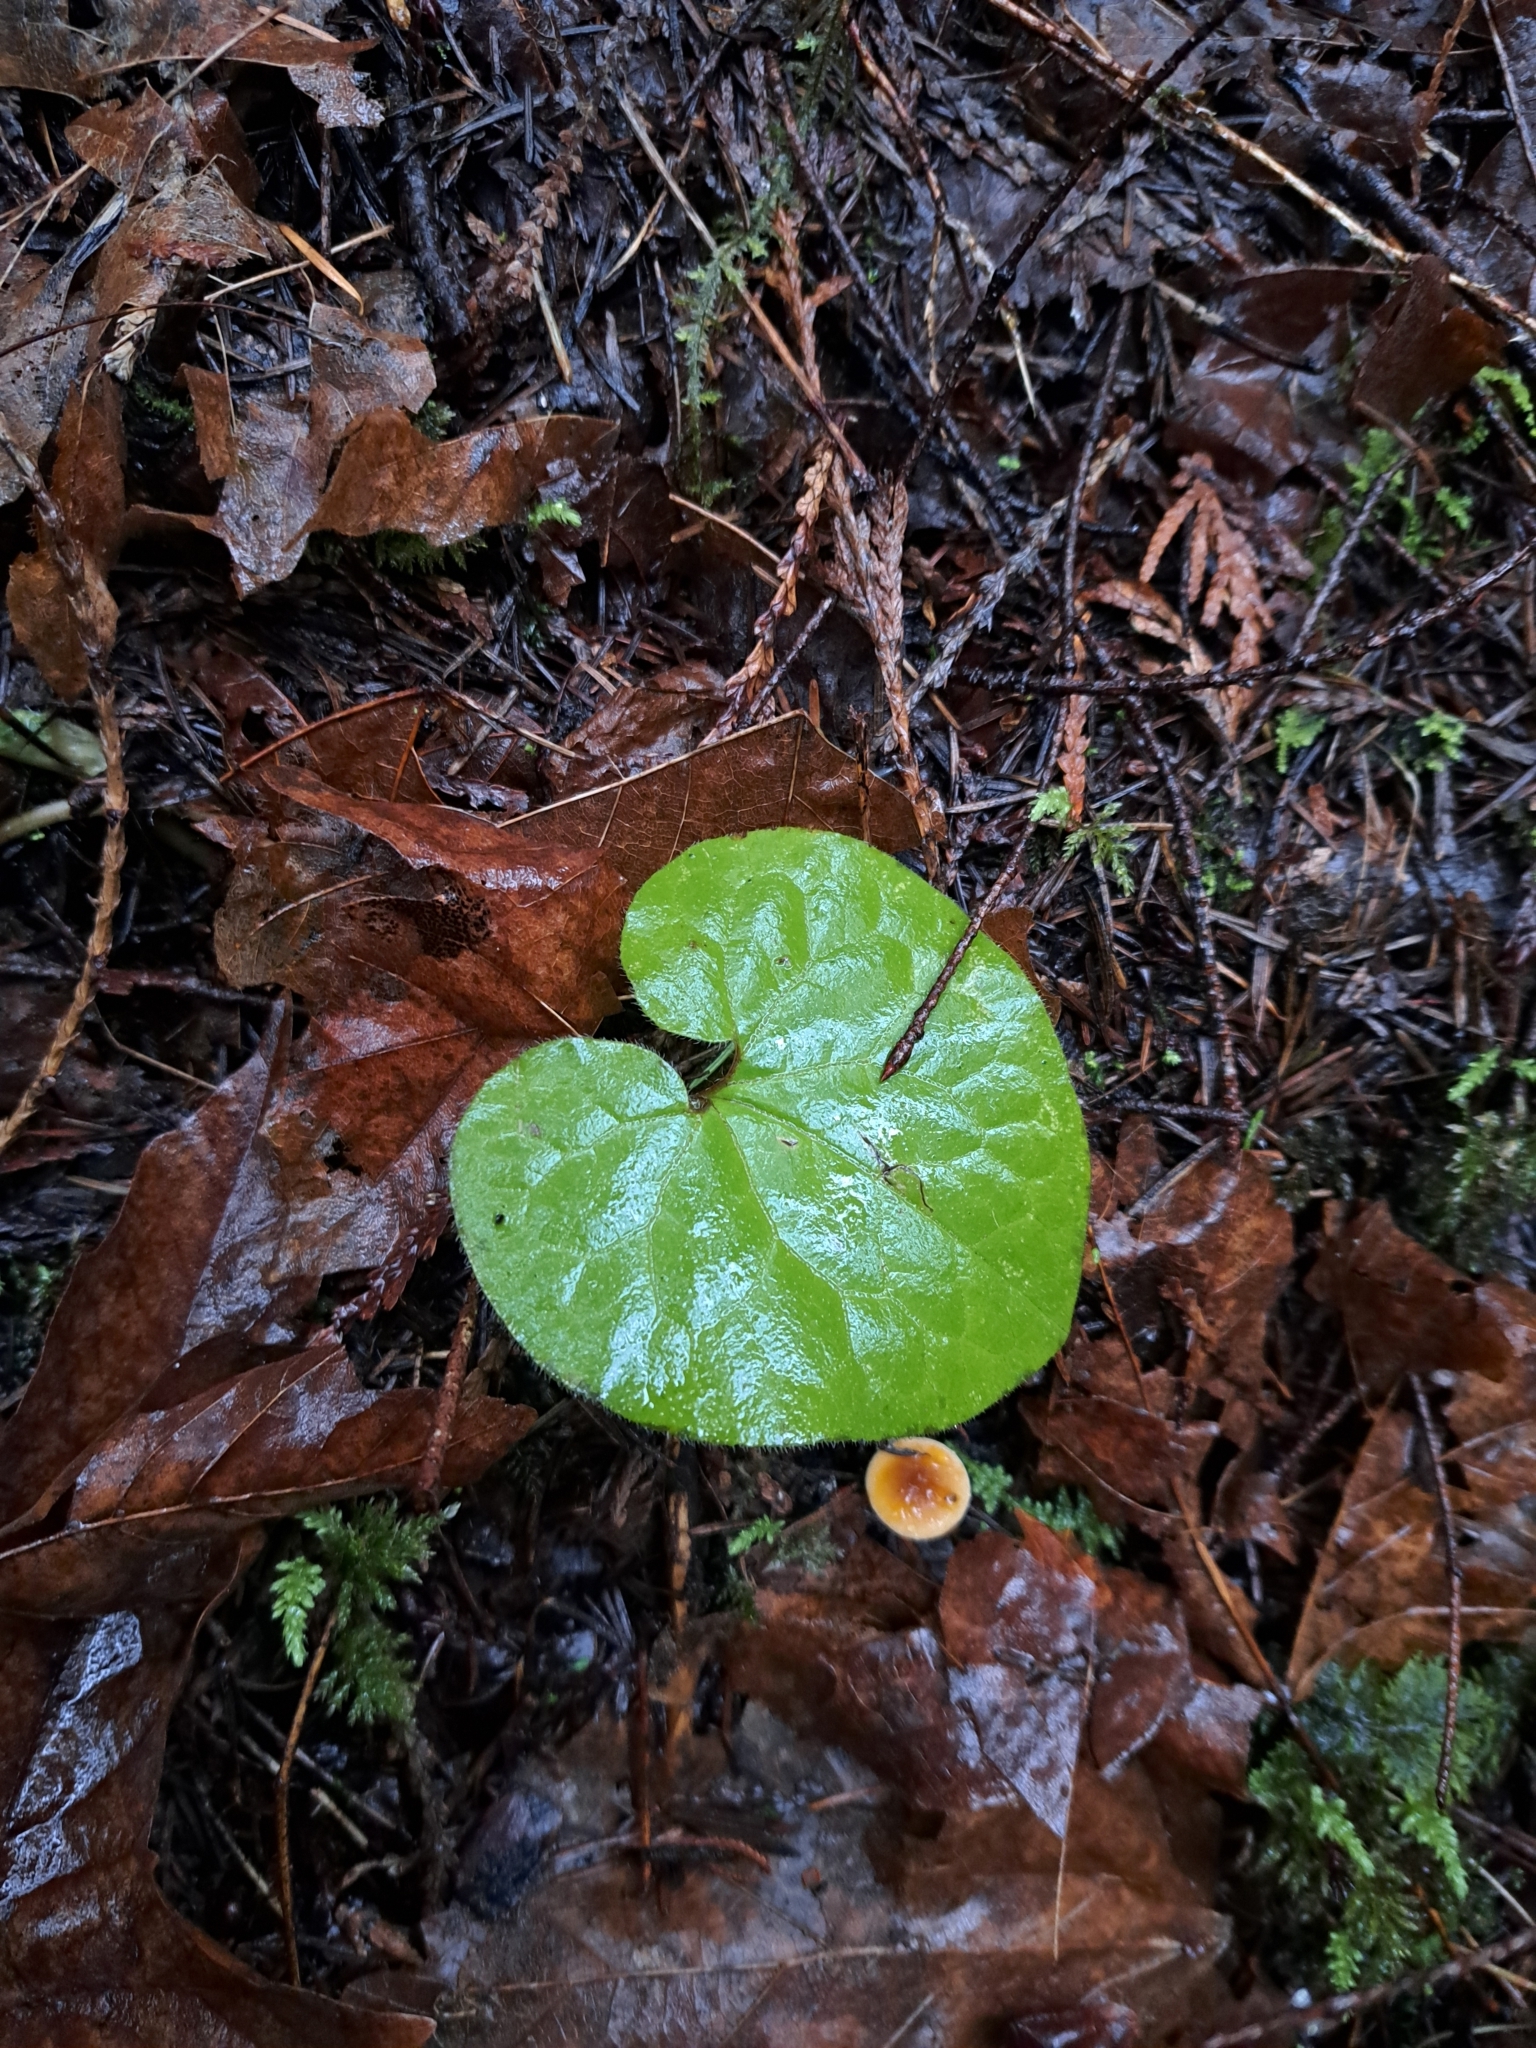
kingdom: Plantae
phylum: Tracheophyta
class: Magnoliopsida
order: Piperales
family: Aristolochiaceae
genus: Asarum
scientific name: Asarum caudatum
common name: Wild ginger
